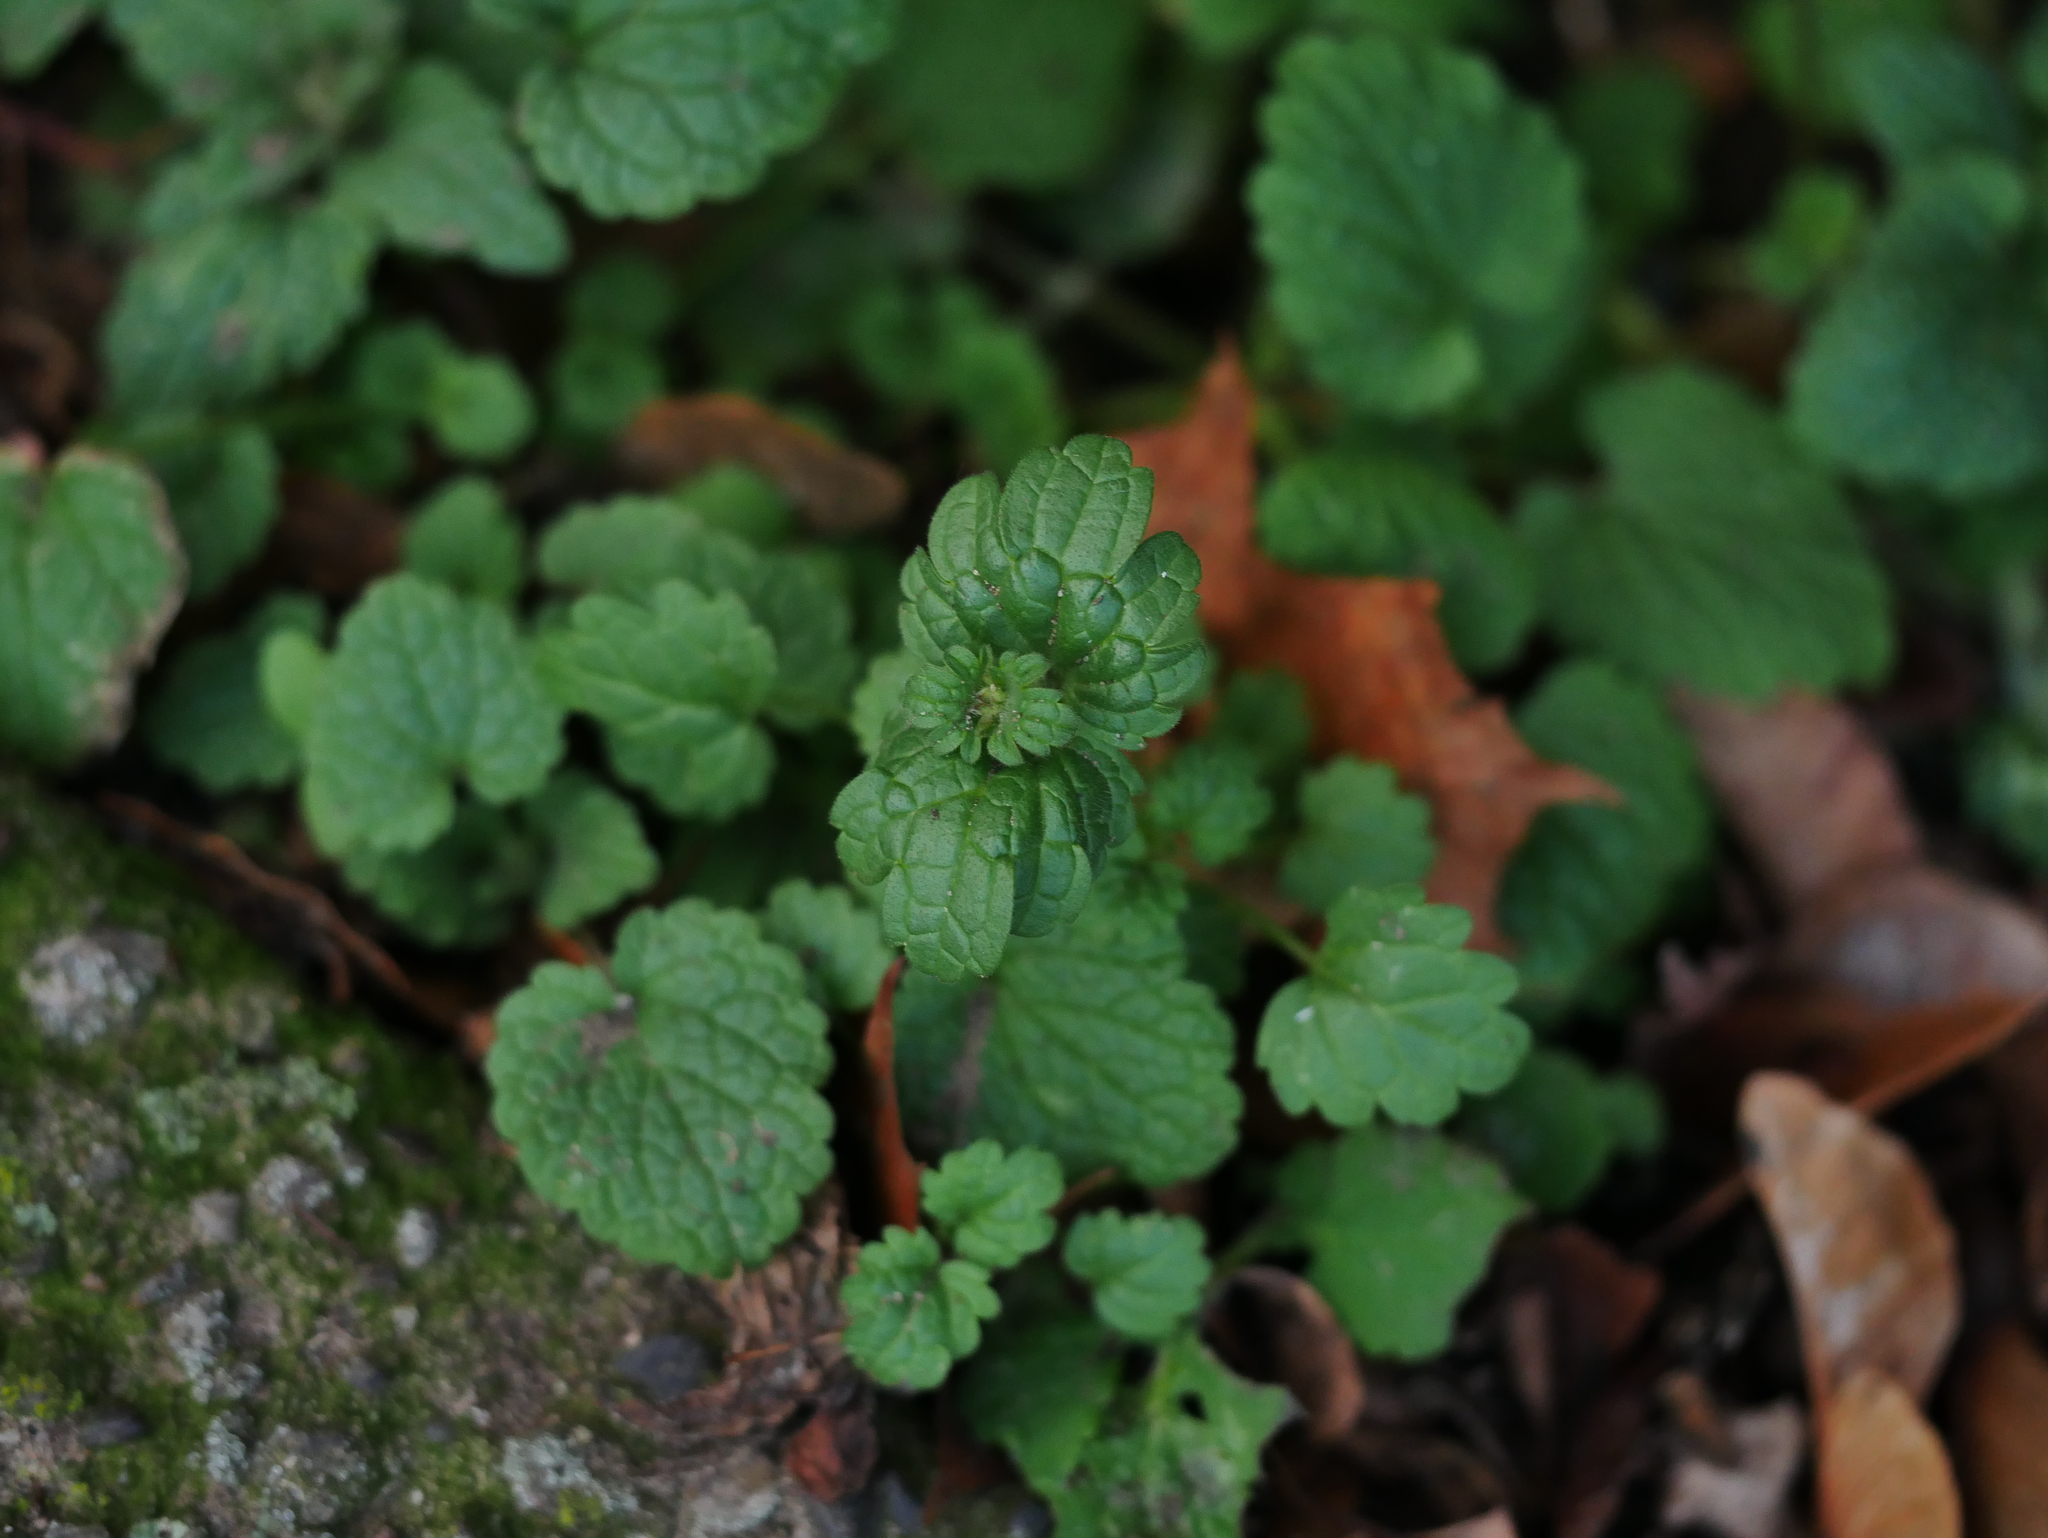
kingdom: Plantae
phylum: Tracheophyta
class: Magnoliopsida
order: Lamiales
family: Lamiaceae
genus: Lamium
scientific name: Lamium amplexicaule
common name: Henbit dead-nettle
